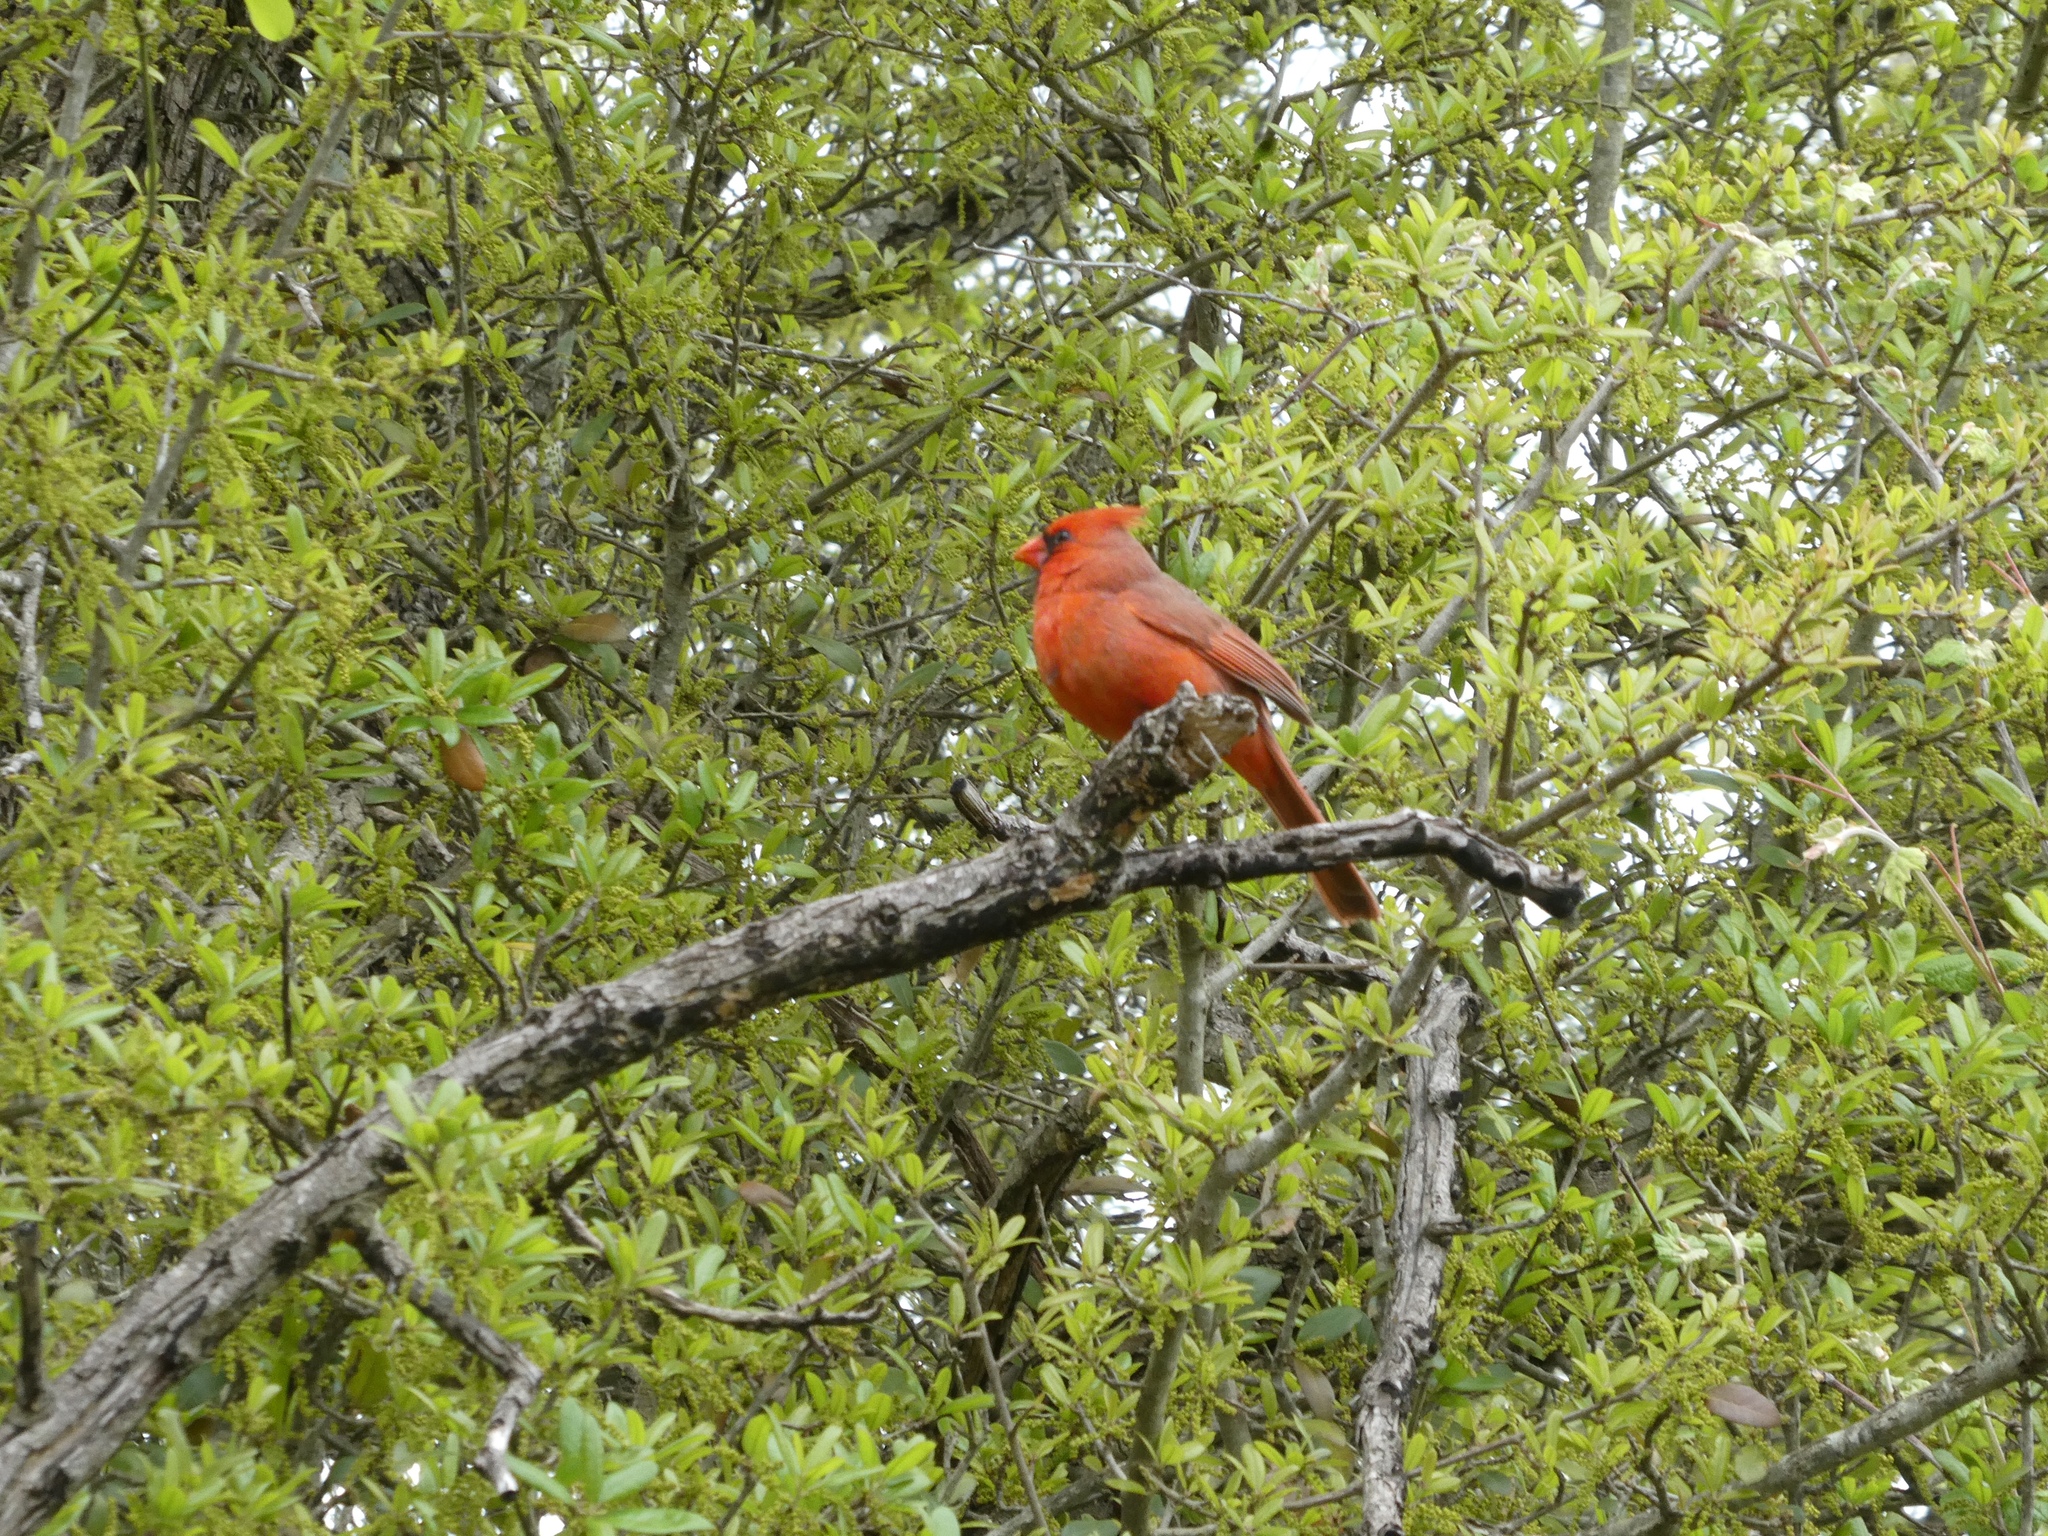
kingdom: Animalia
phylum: Chordata
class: Aves
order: Passeriformes
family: Cardinalidae
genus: Cardinalis
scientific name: Cardinalis cardinalis
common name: Northern cardinal
